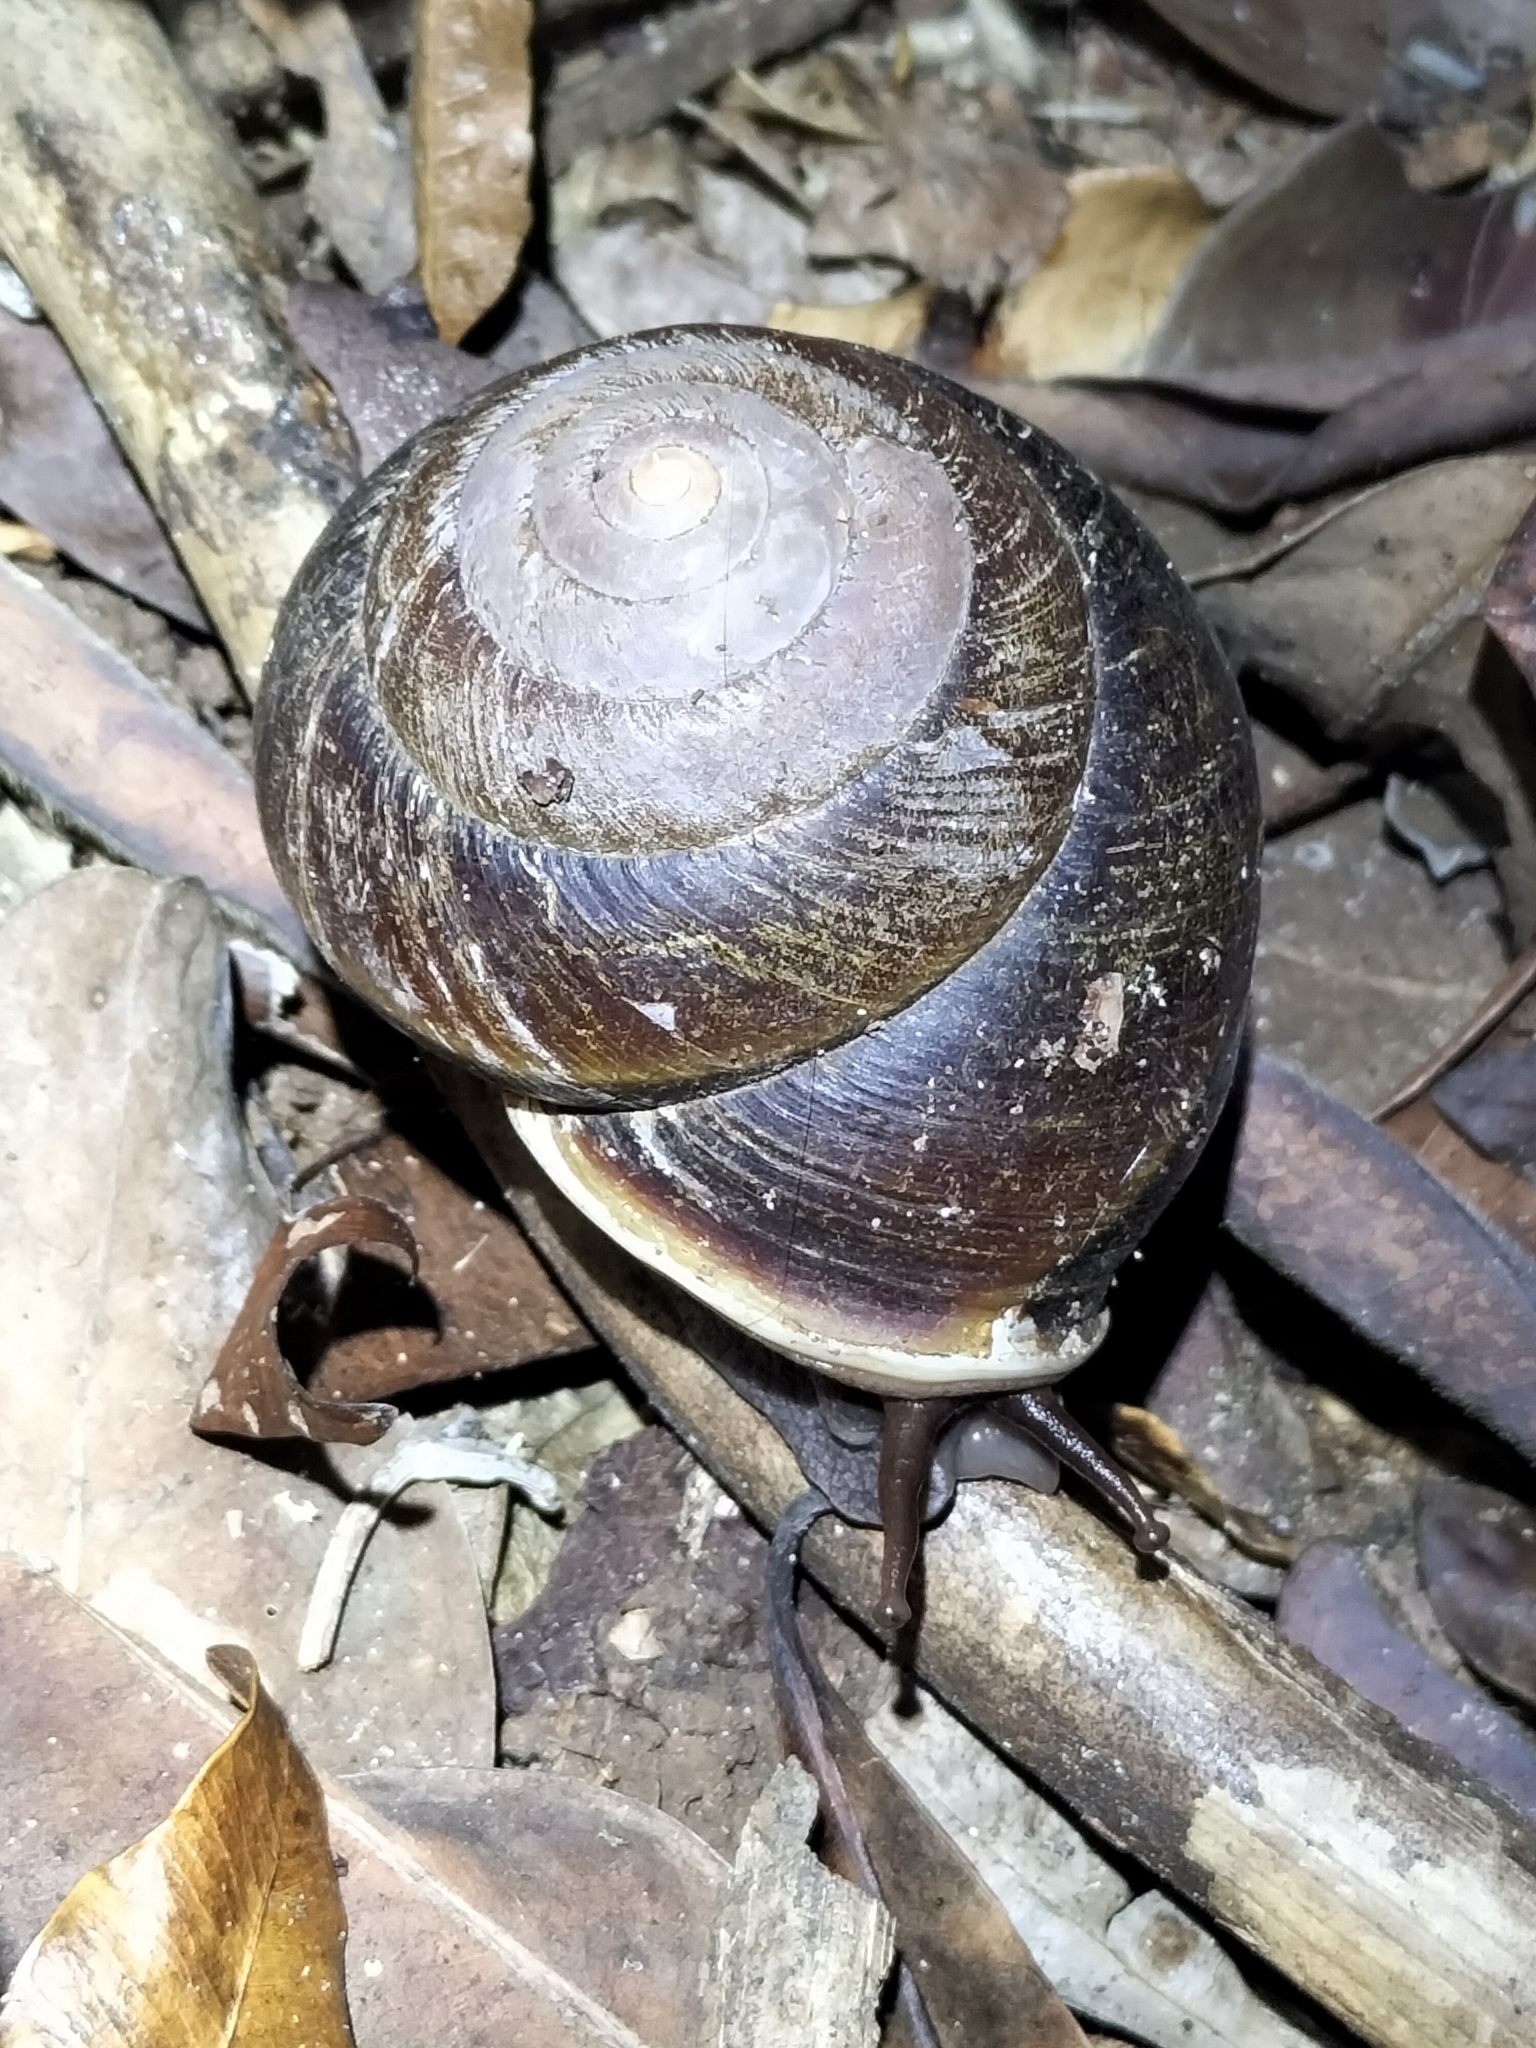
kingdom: Animalia
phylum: Mollusca
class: Gastropoda
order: Stylommatophora
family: Camaenidae
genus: Hadra
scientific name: Hadra bipartita
